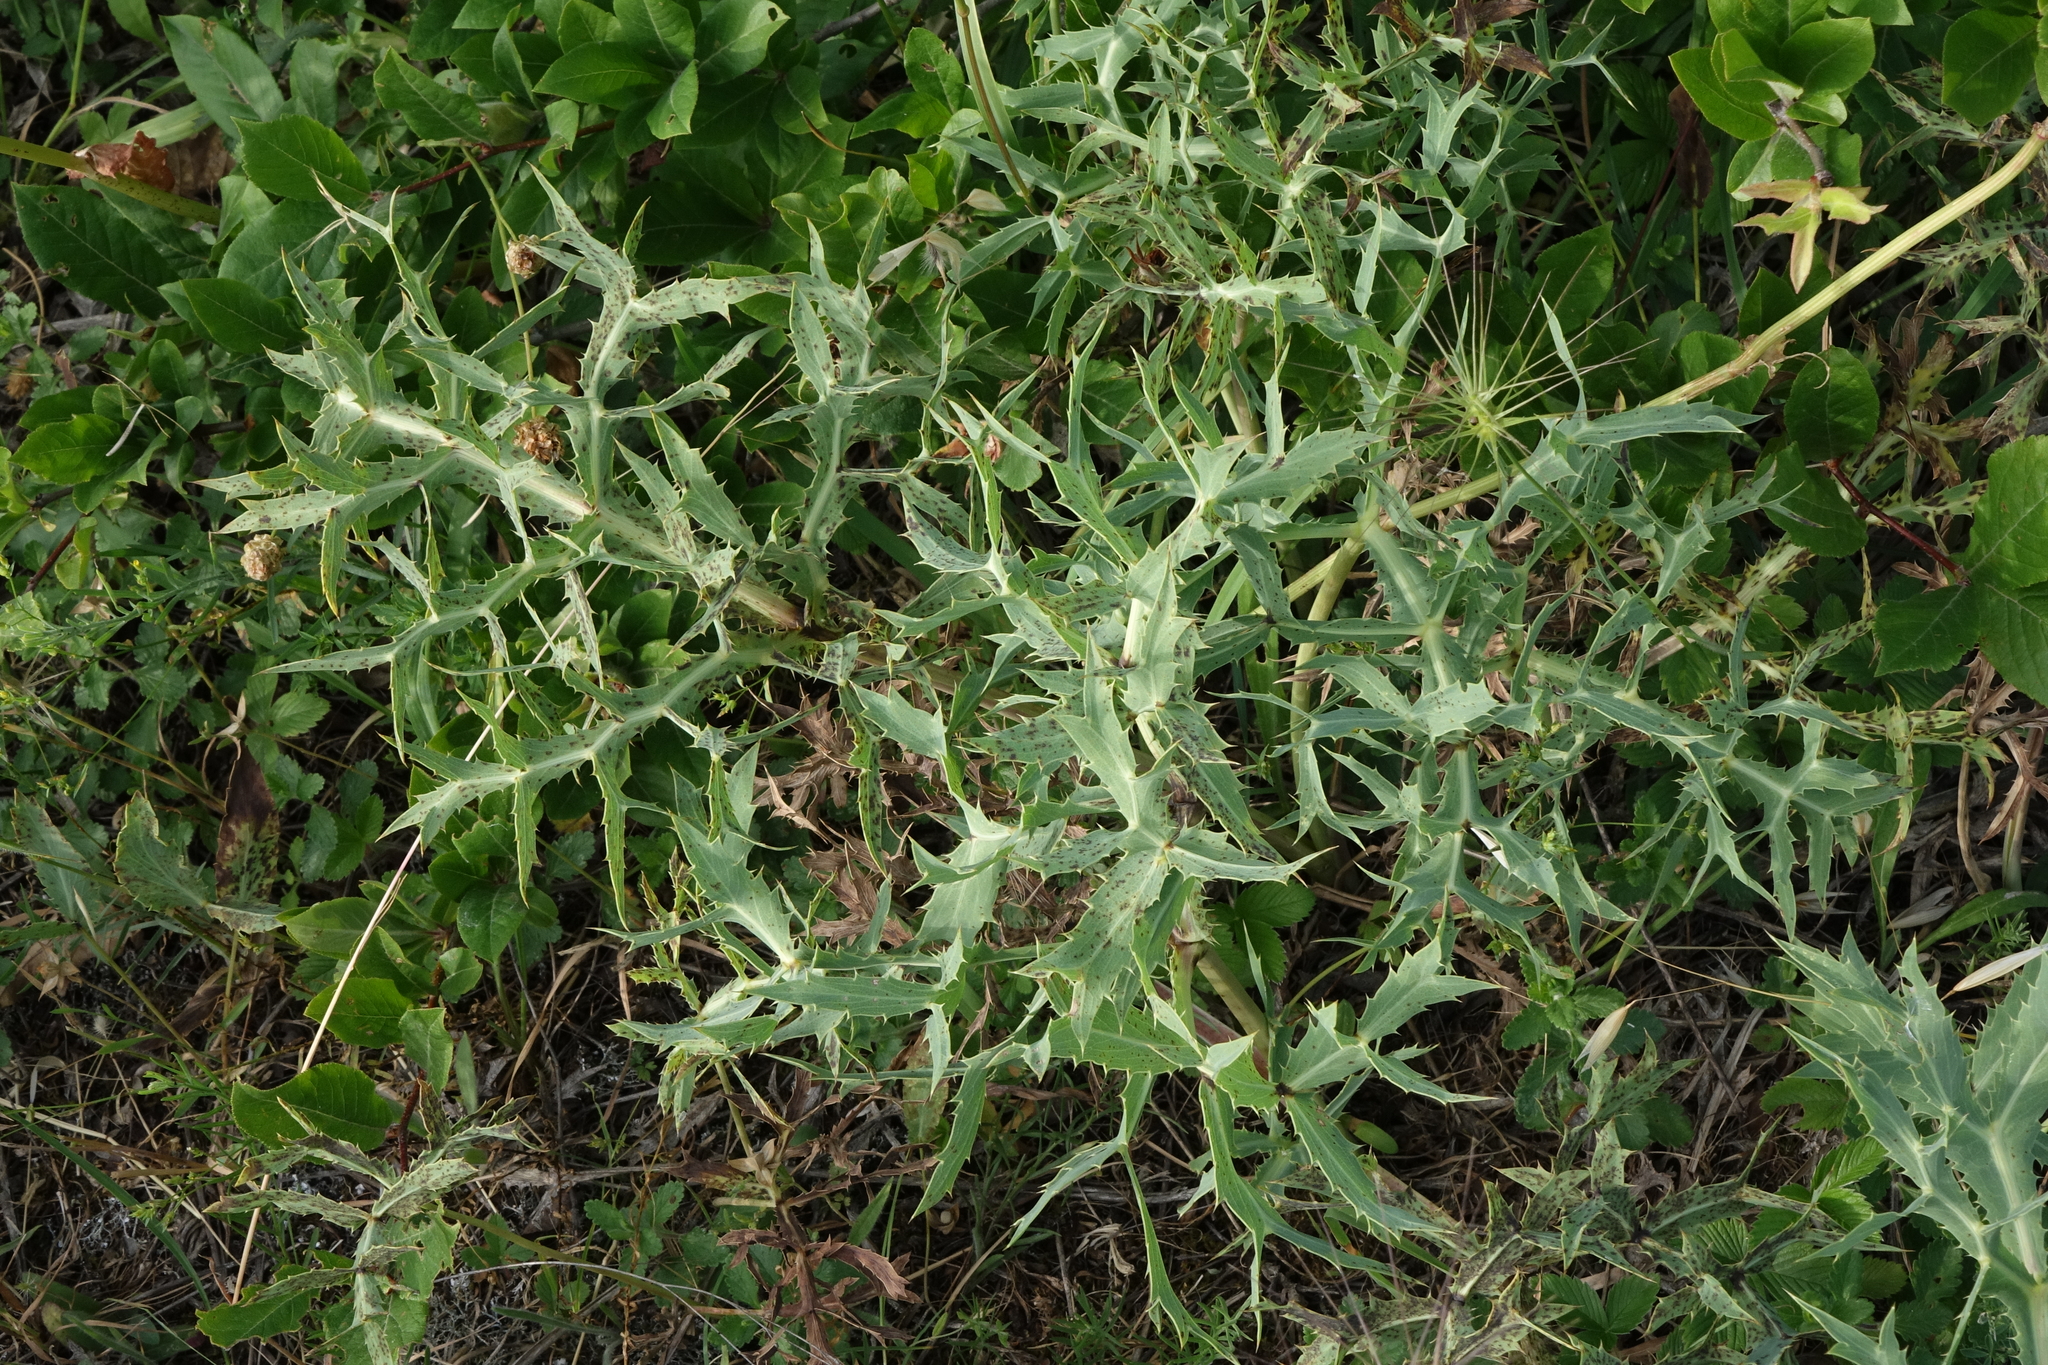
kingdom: Plantae
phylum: Tracheophyta
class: Magnoliopsida
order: Apiales
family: Apiaceae
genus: Eryngium
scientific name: Eryngium campestre
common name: Field eryngo
